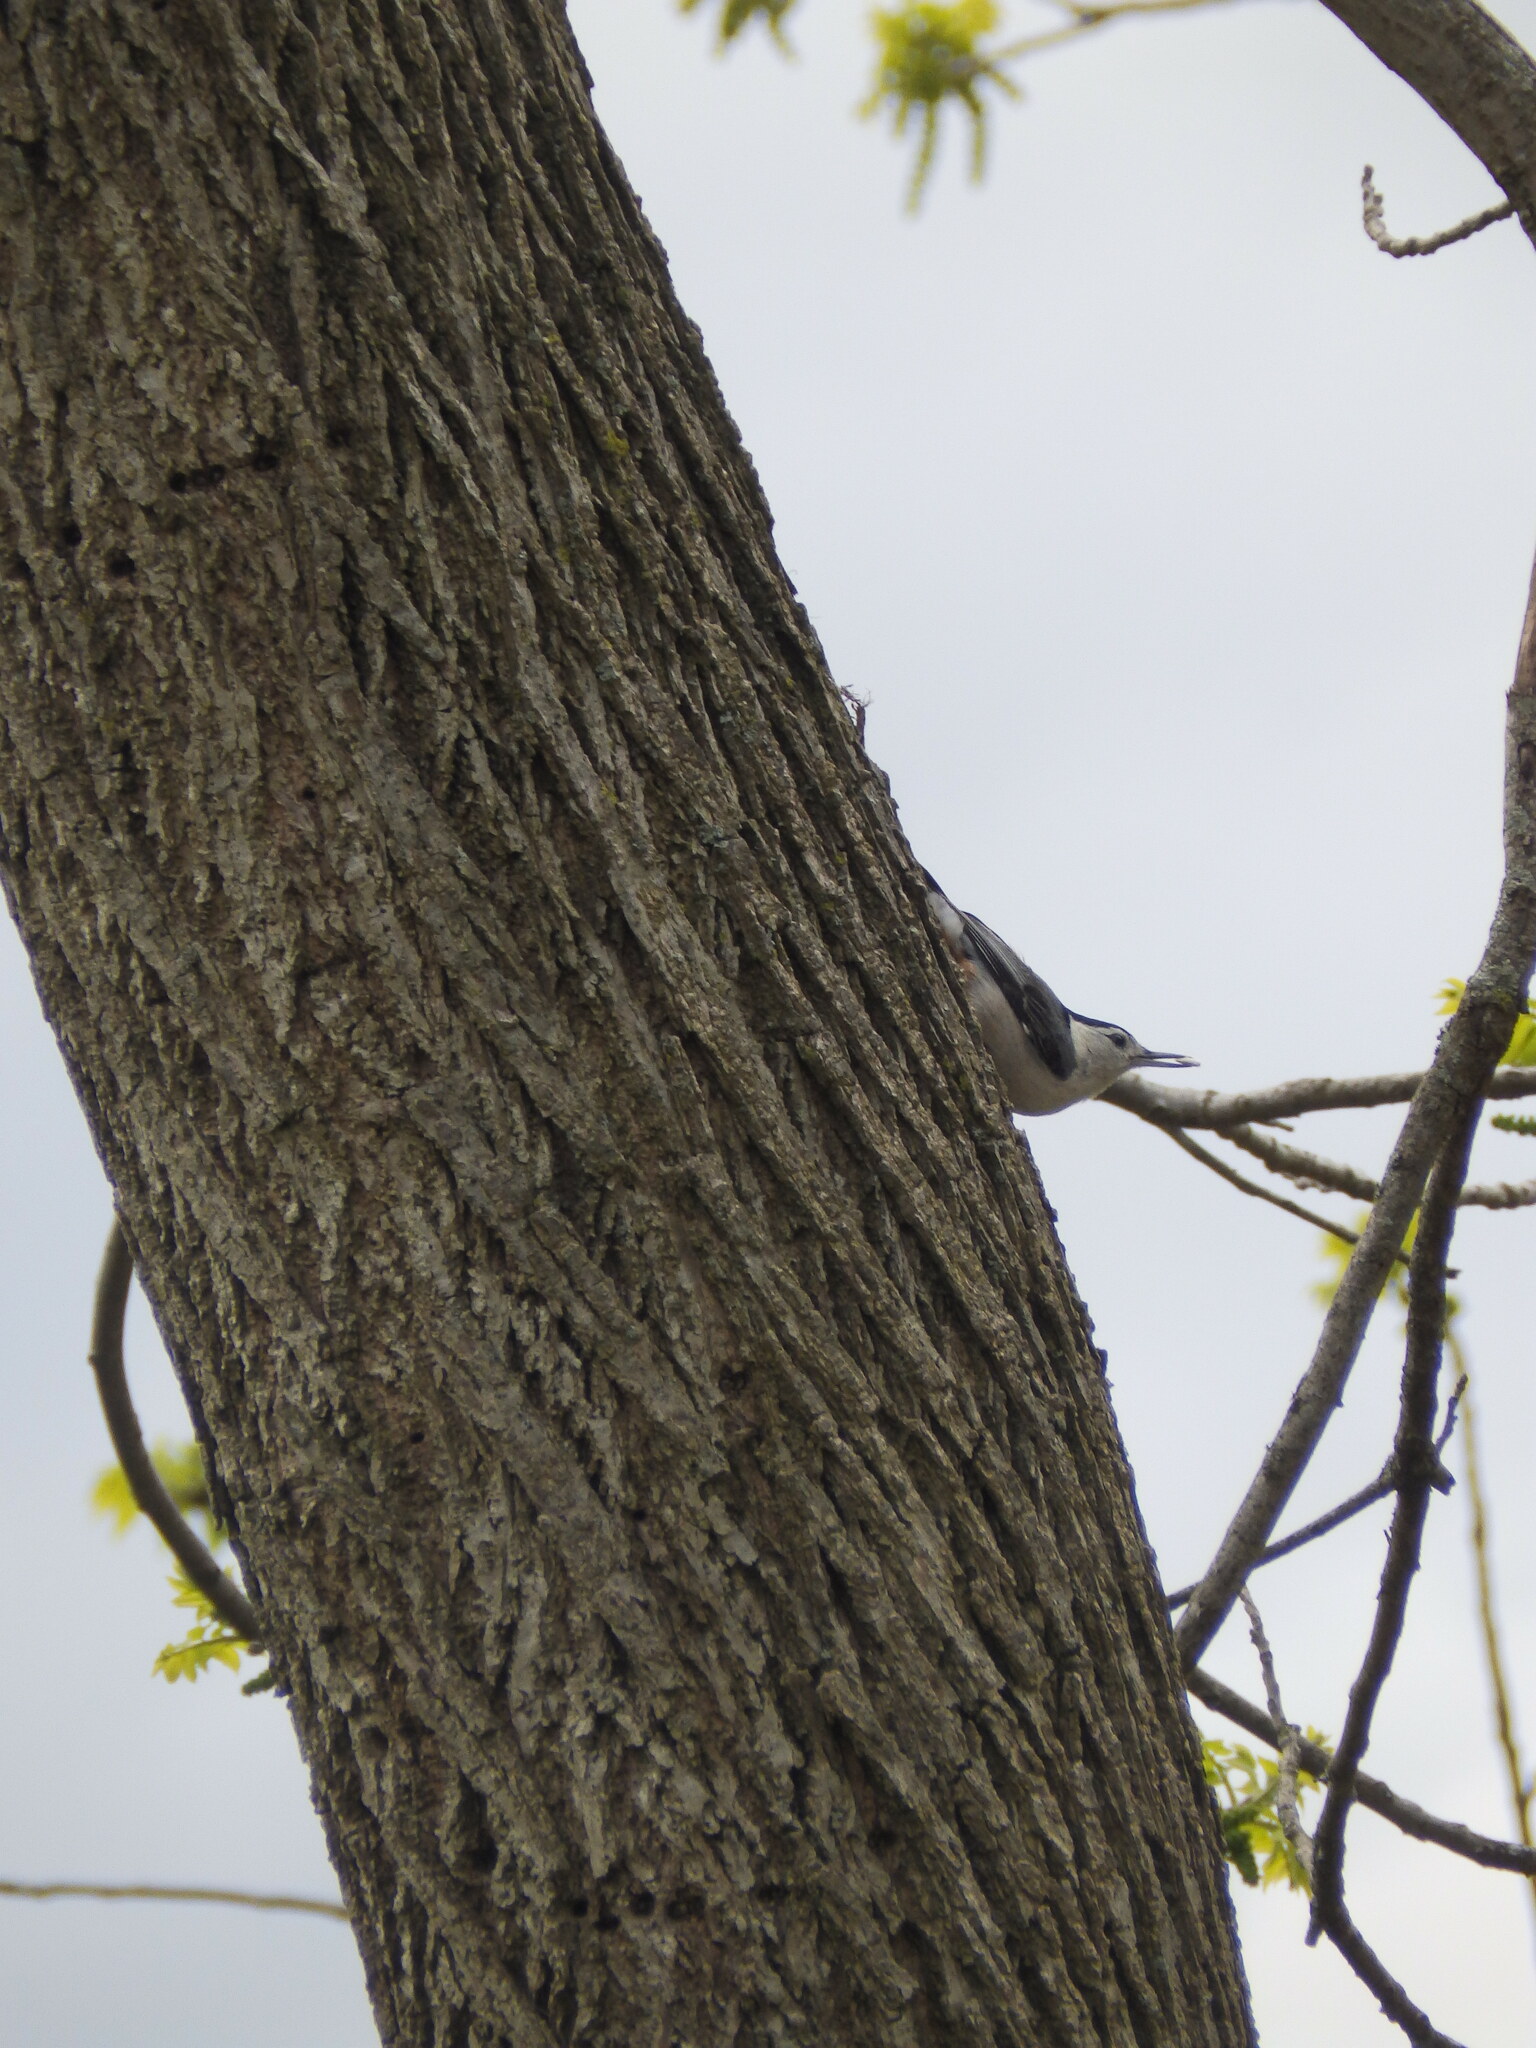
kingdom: Animalia
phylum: Chordata
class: Aves
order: Passeriformes
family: Sittidae
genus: Sitta
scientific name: Sitta carolinensis
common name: White-breasted nuthatch
